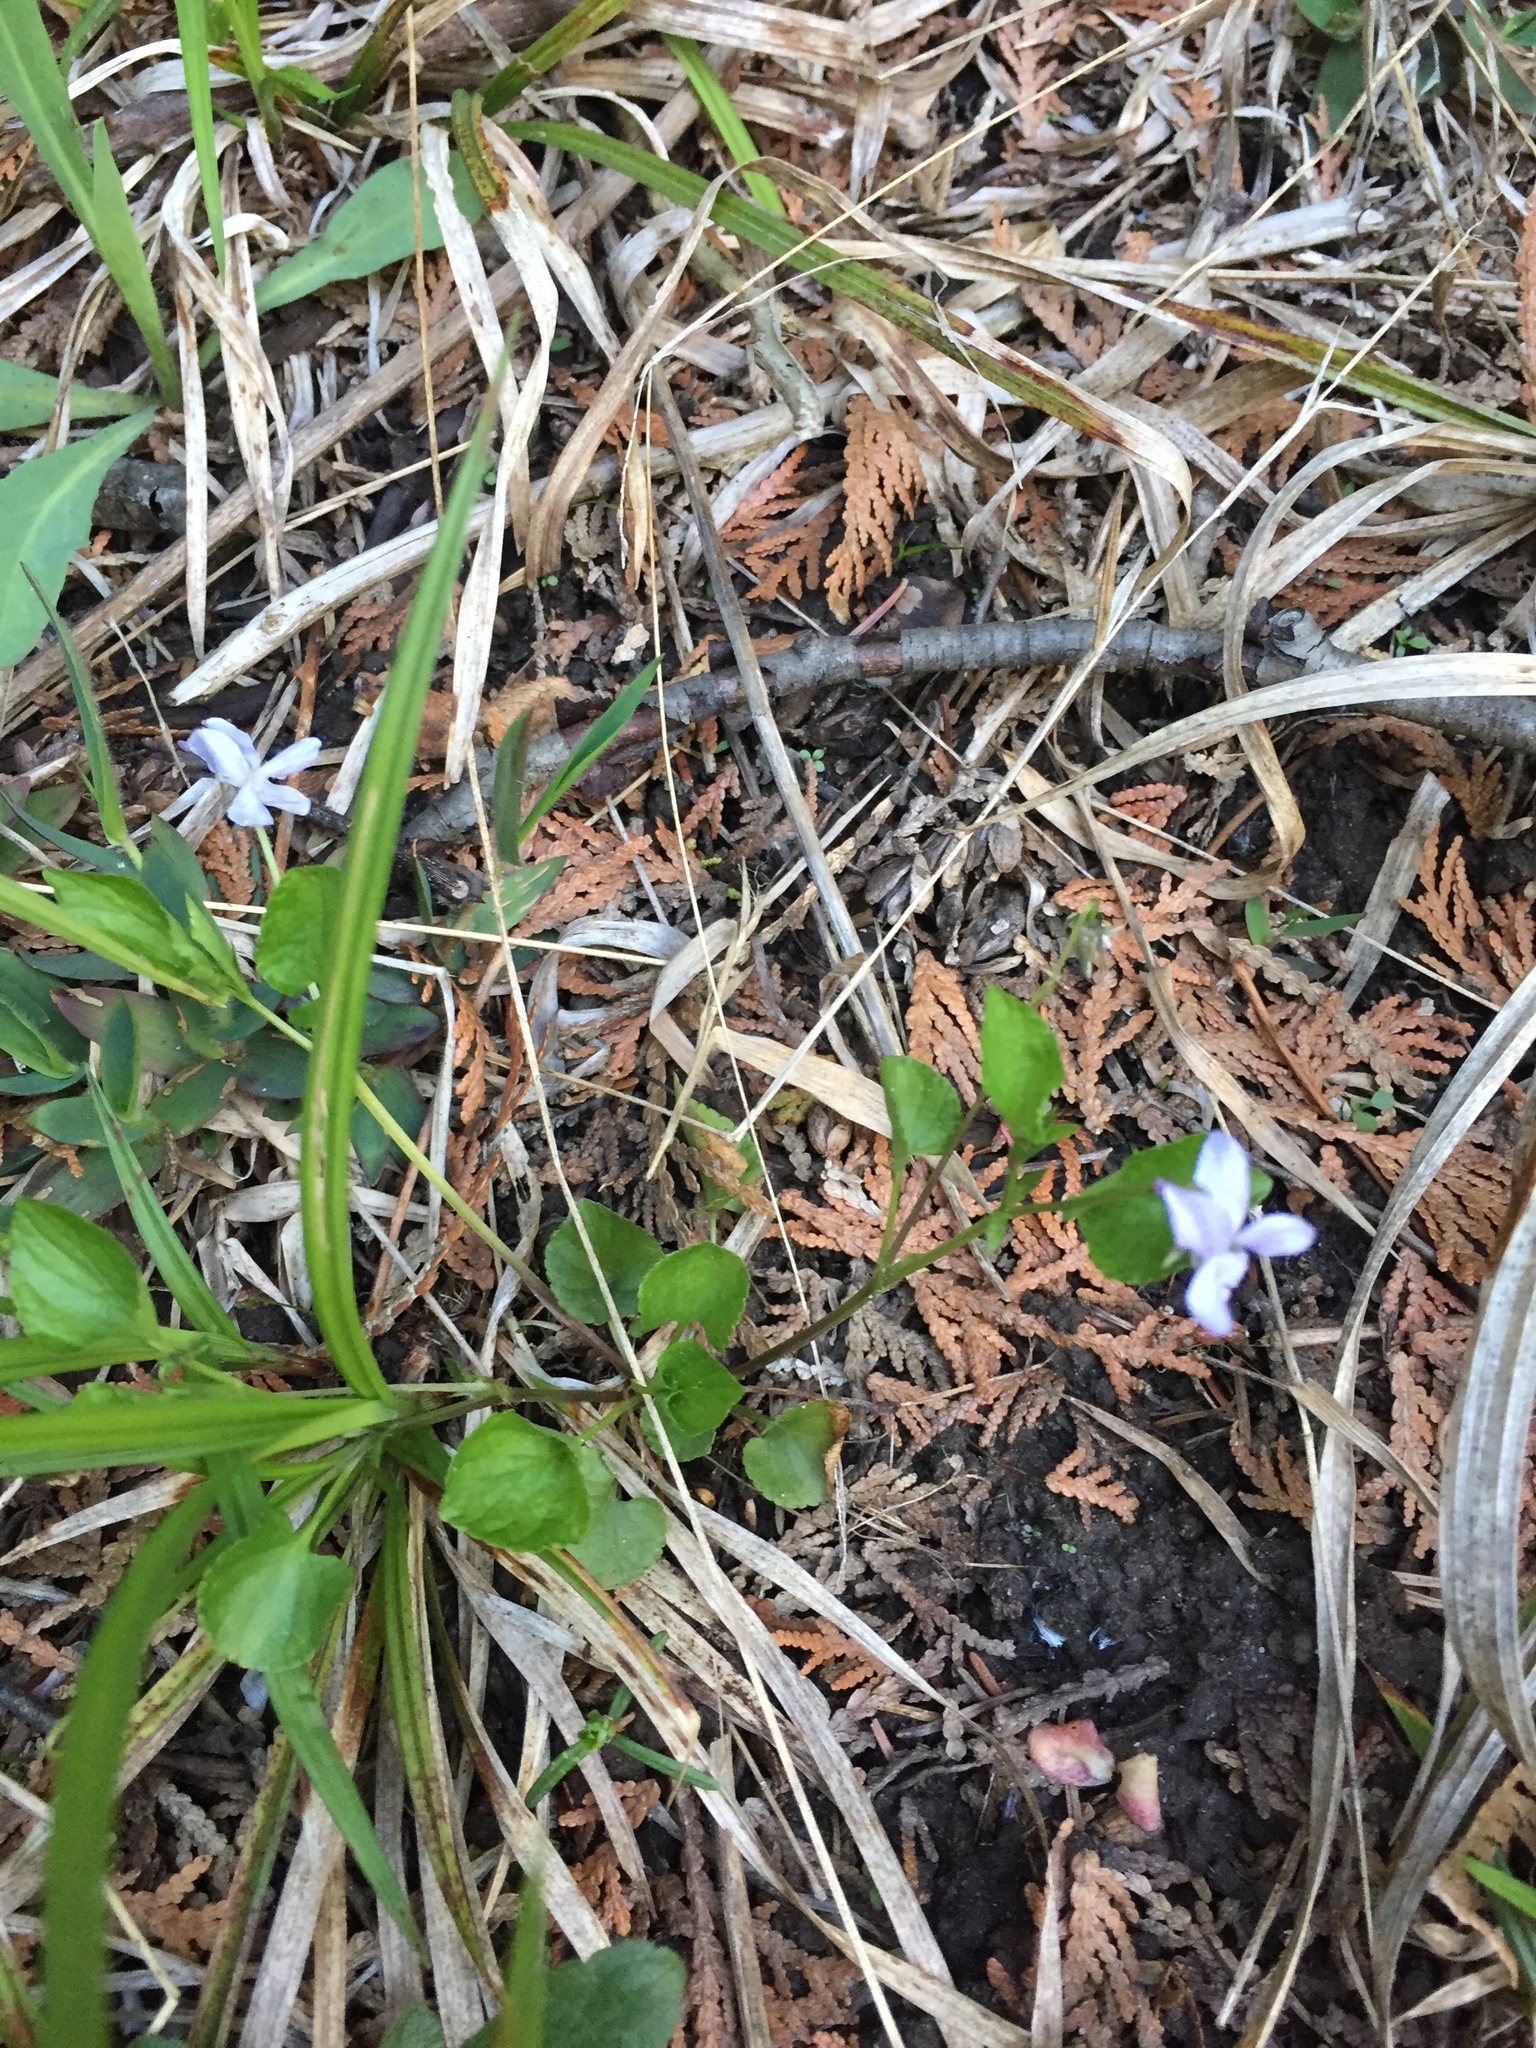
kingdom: Plantae
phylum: Tracheophyta
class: Magnoliopsida
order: Malpighiales
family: Violaceae
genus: Viola
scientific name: Viola labradorica
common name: Labrador violet
